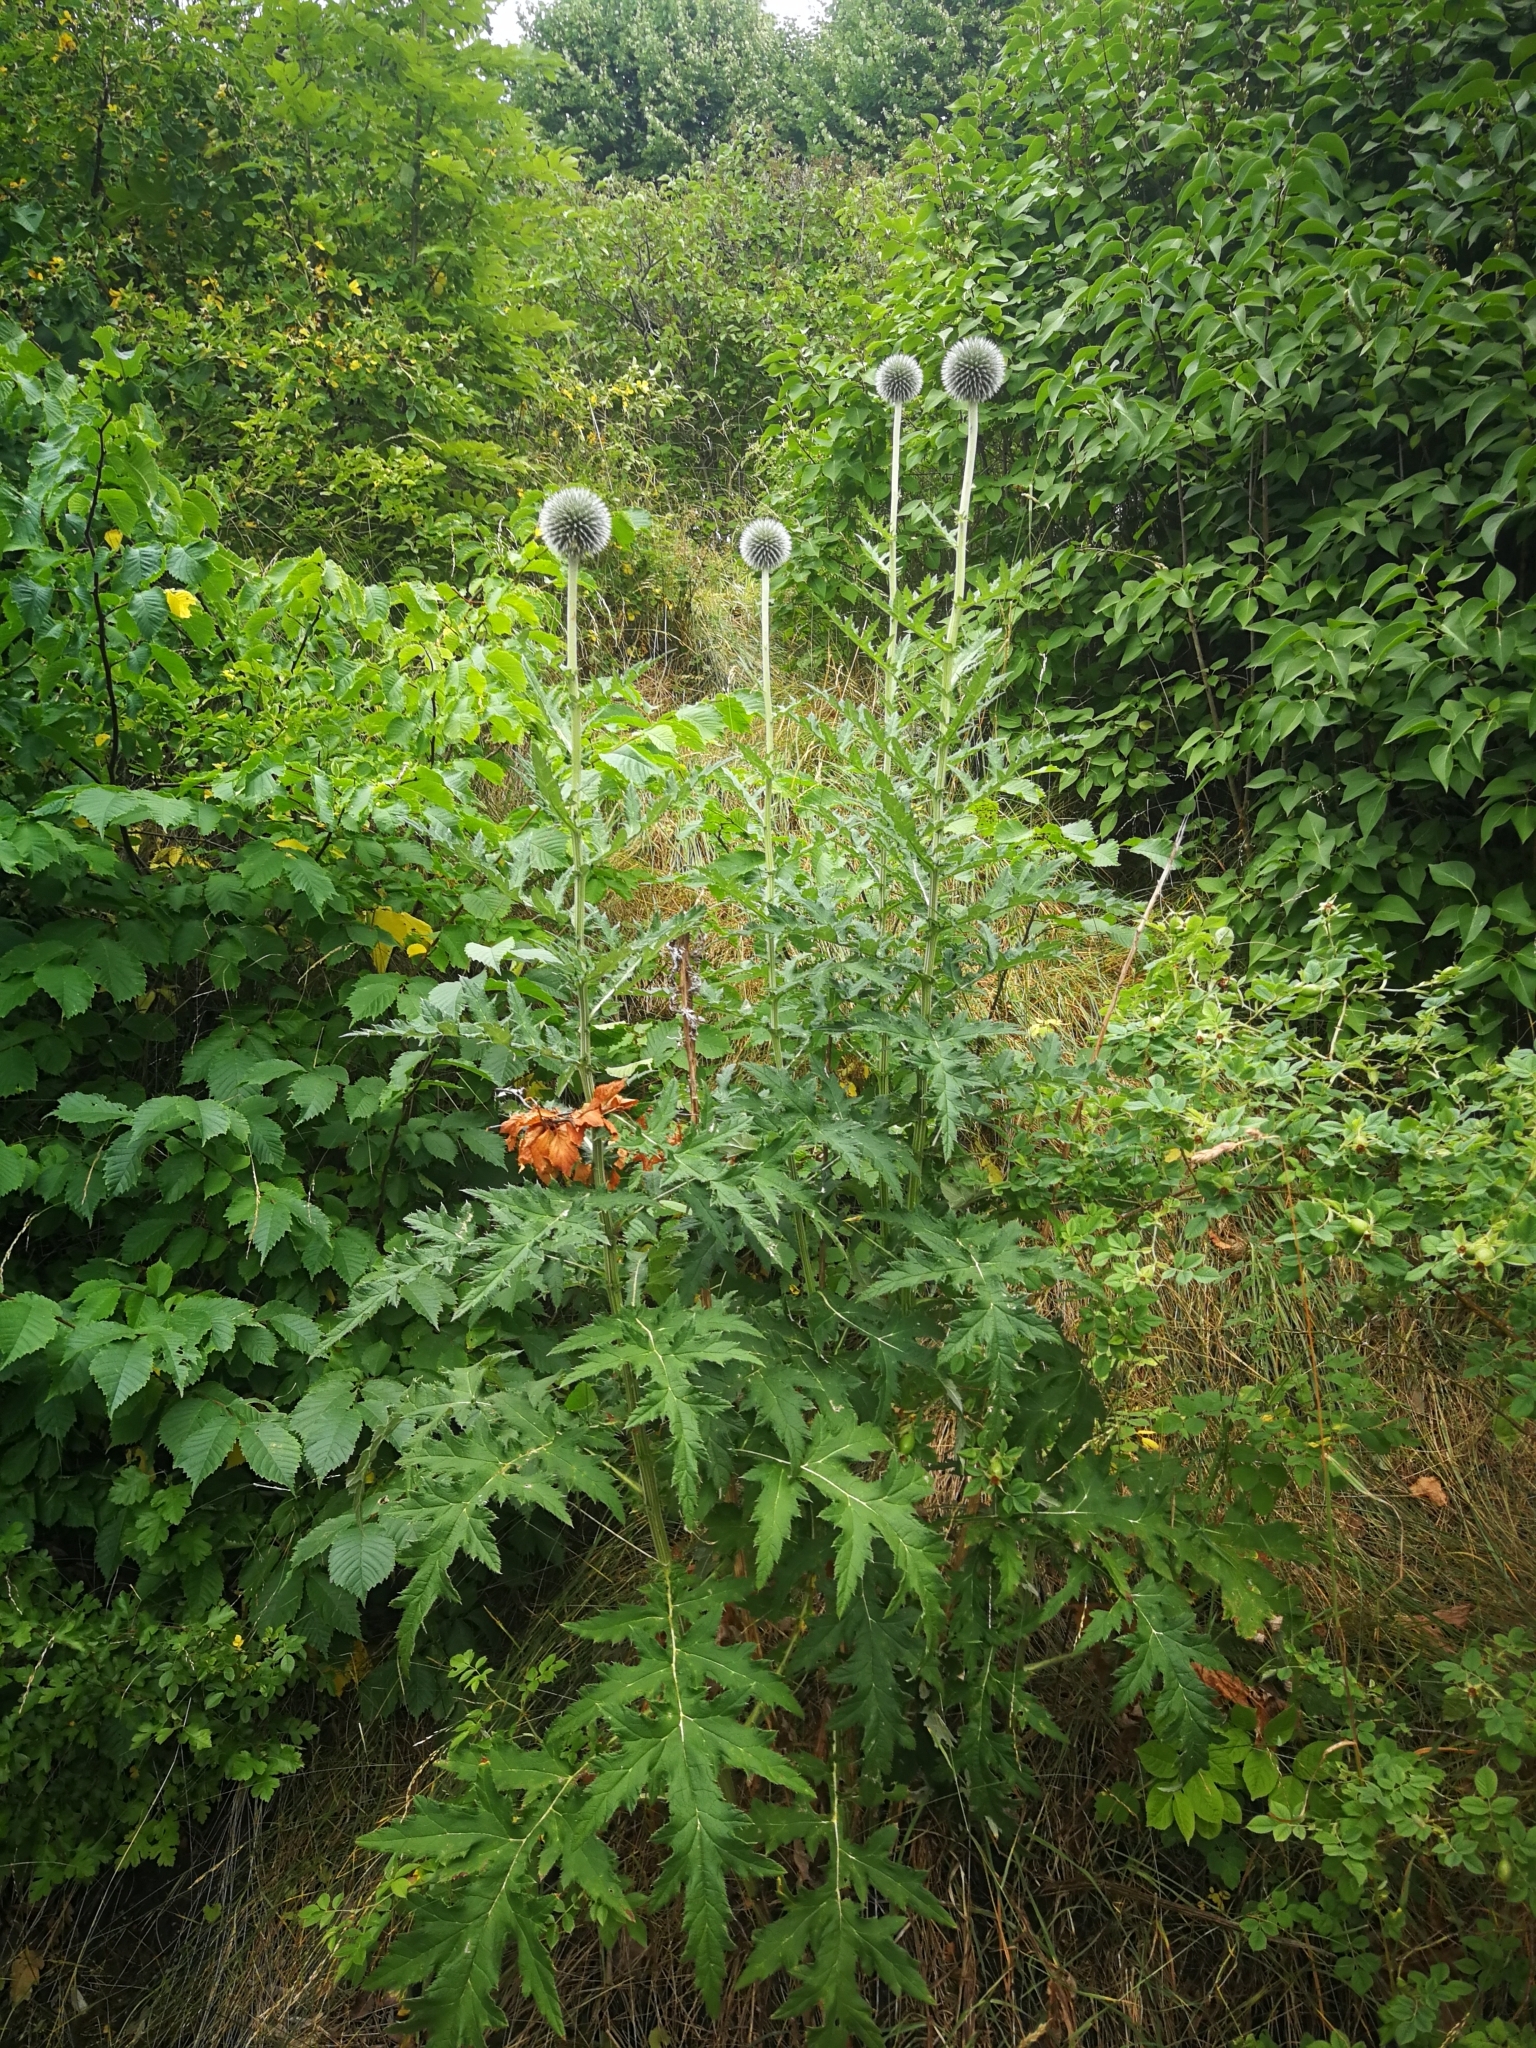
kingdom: Plantae
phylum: Tracheophyta
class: Magnoliopsida
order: Asterales
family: Asteraceae
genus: Echinops
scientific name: Echinops sphaerocephalus
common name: Glandular globe-thistle
